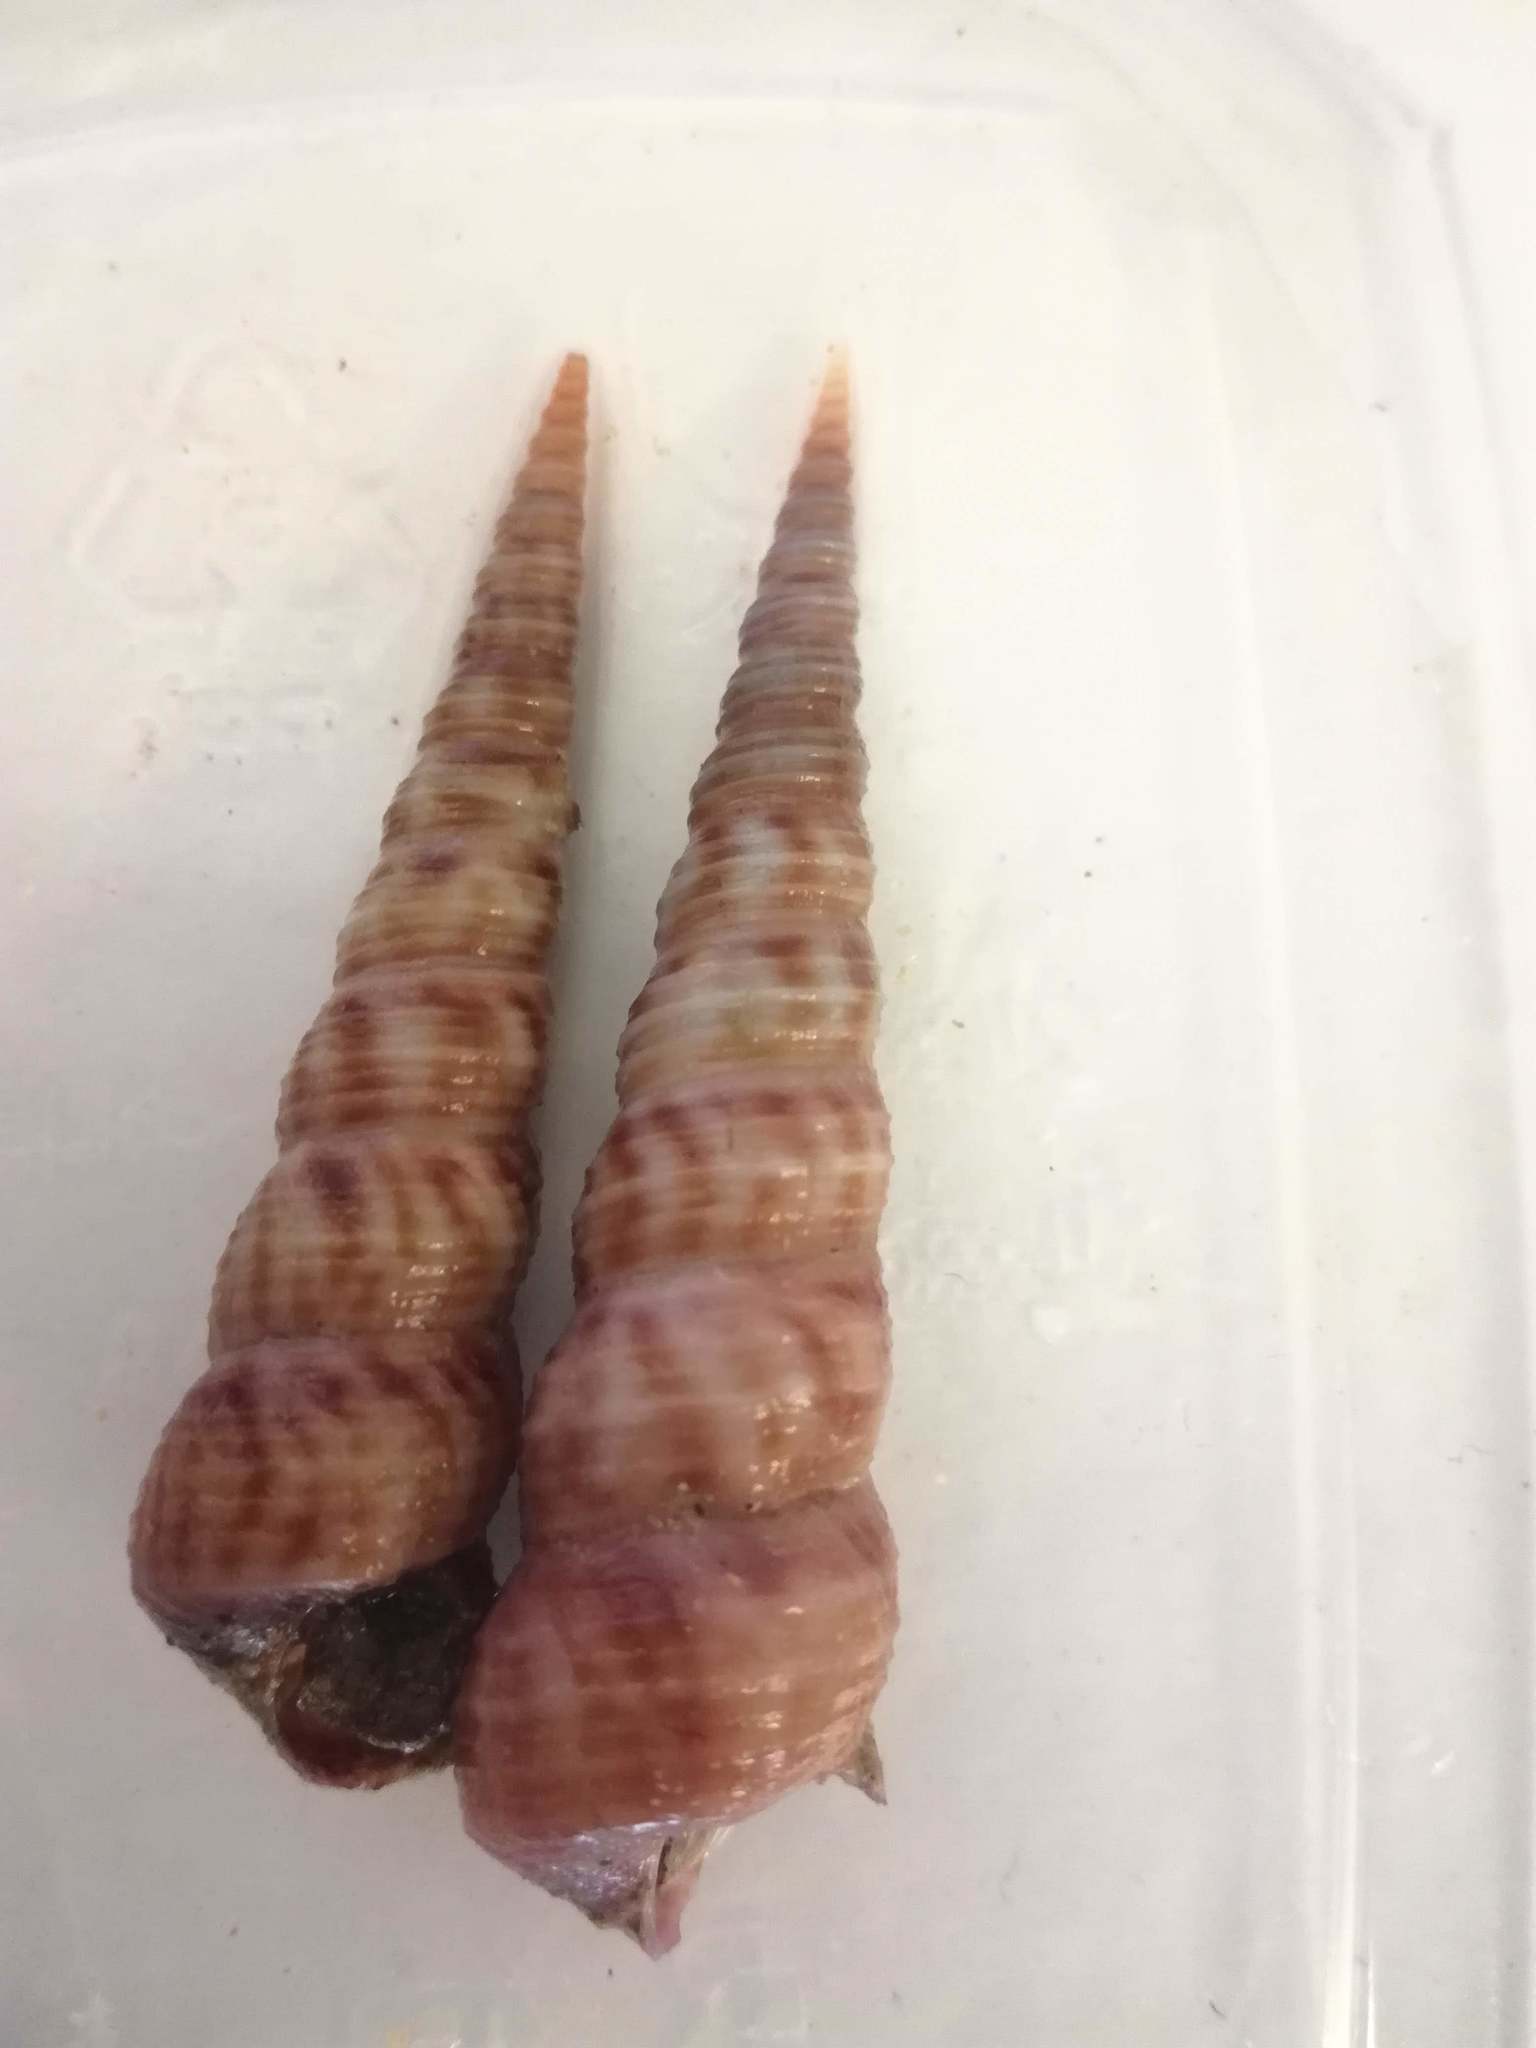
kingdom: Animalia
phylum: Mollusca
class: Gastropoda
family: Turritellidae
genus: Turritellinella
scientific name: Turritellinella tricarinata
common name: Auger shell
